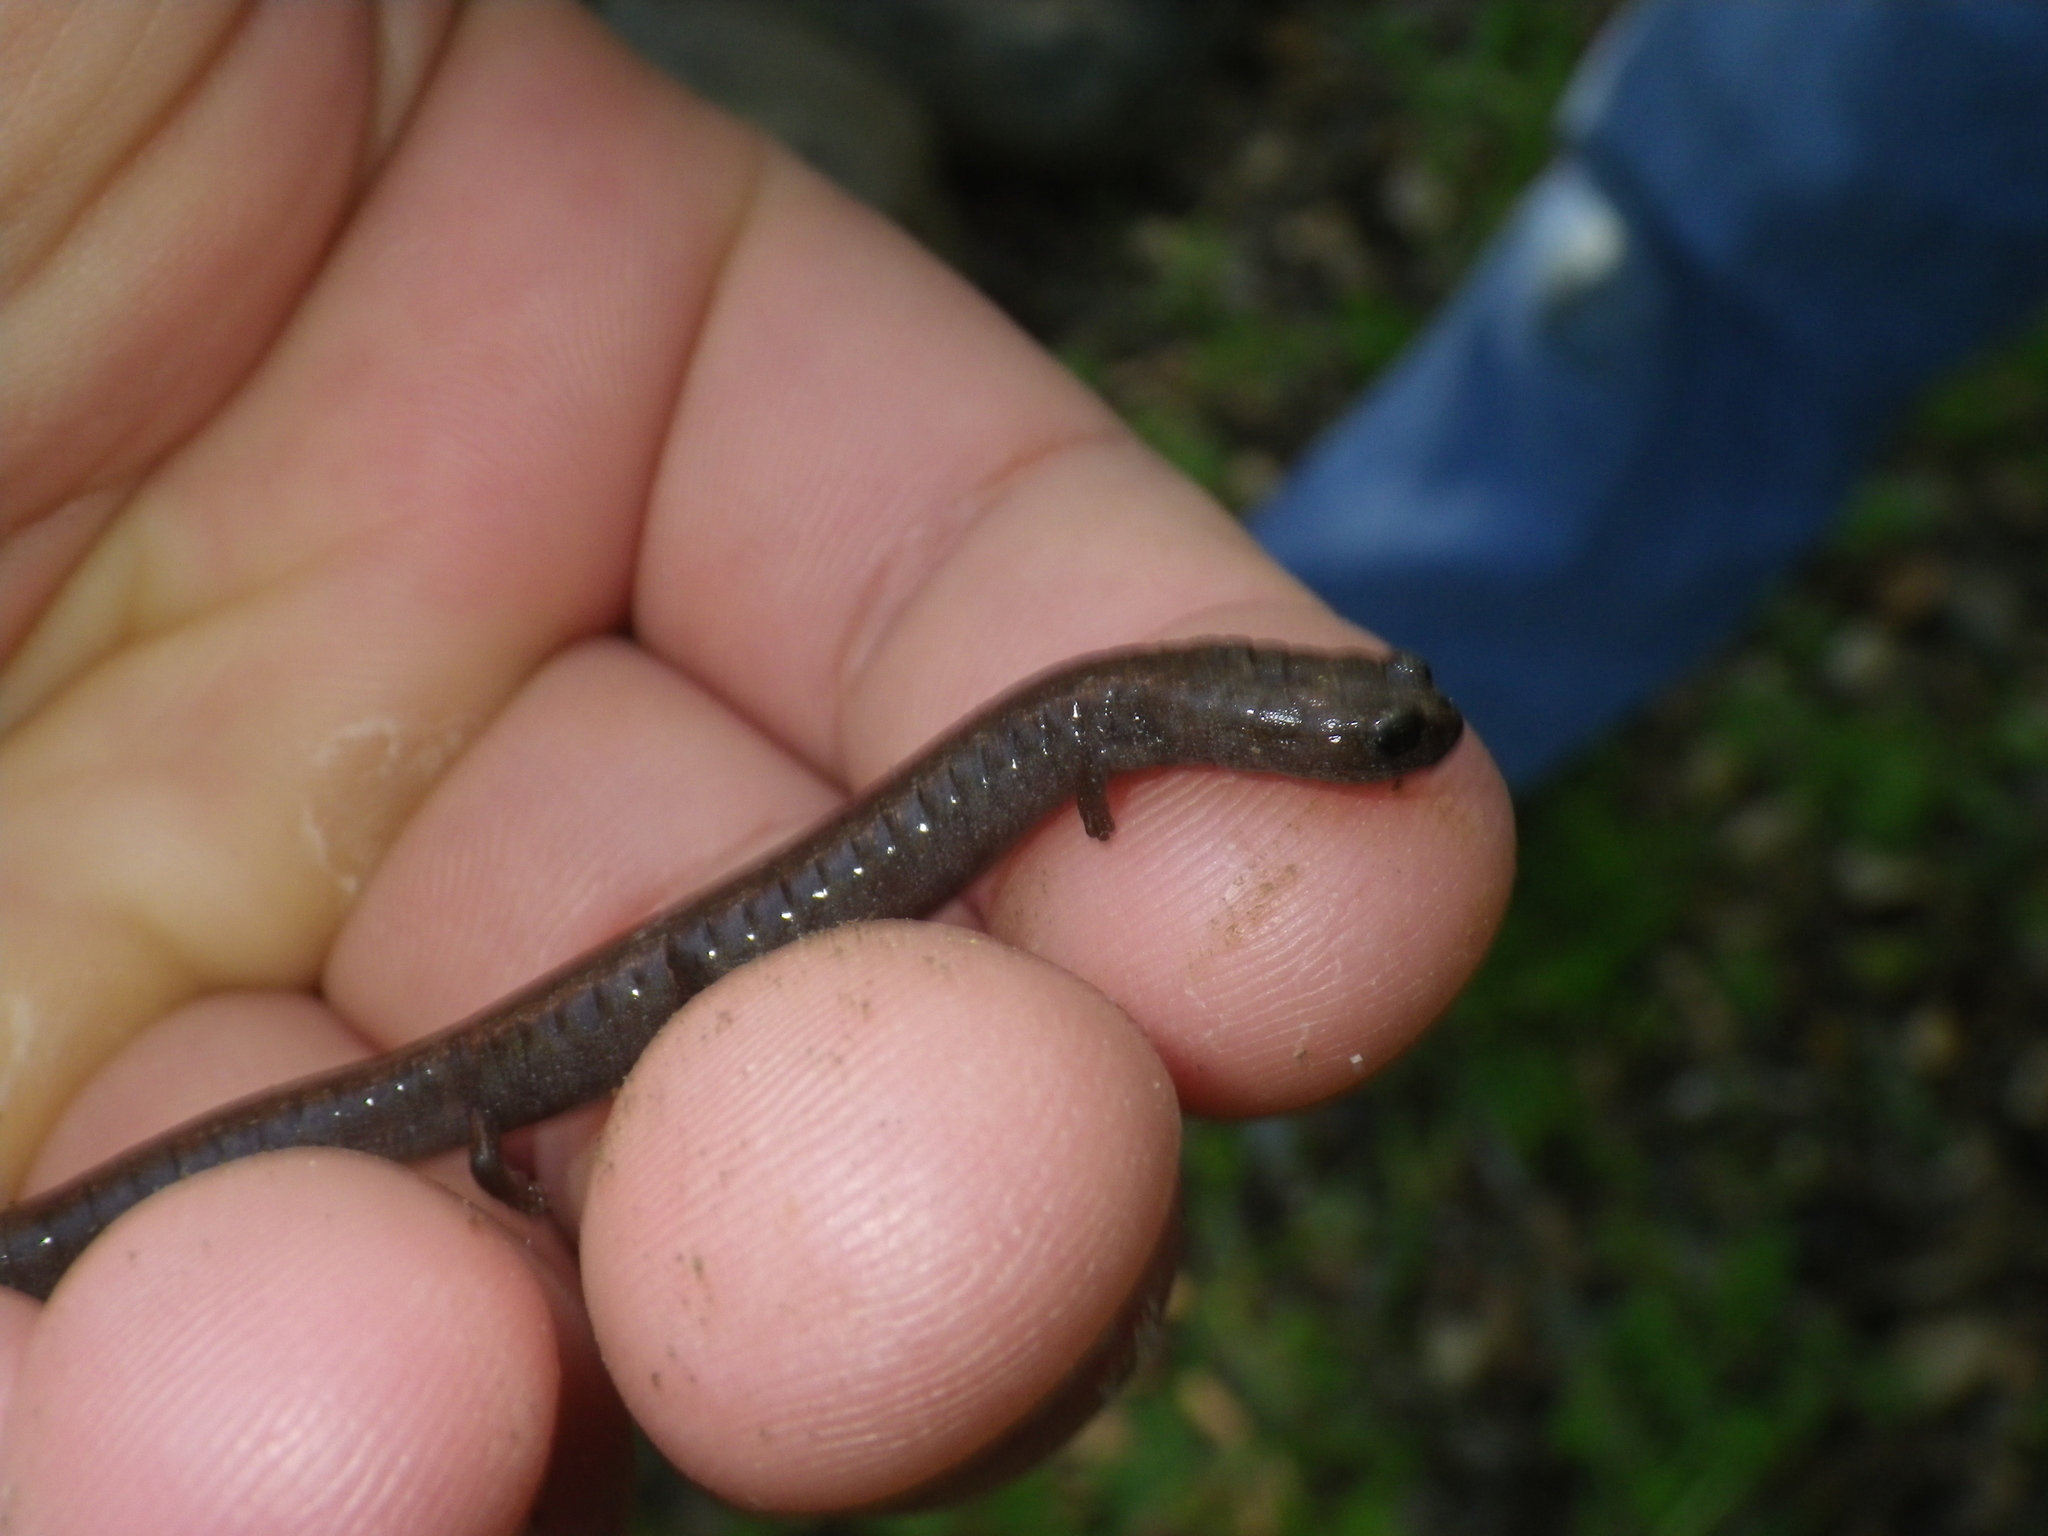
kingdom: Animalia
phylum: Chordata
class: Amphibia
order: Caudata
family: Plethodontidae
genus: Batrachoseps
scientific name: Batrachoseps attenuatus
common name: California slender salamander
